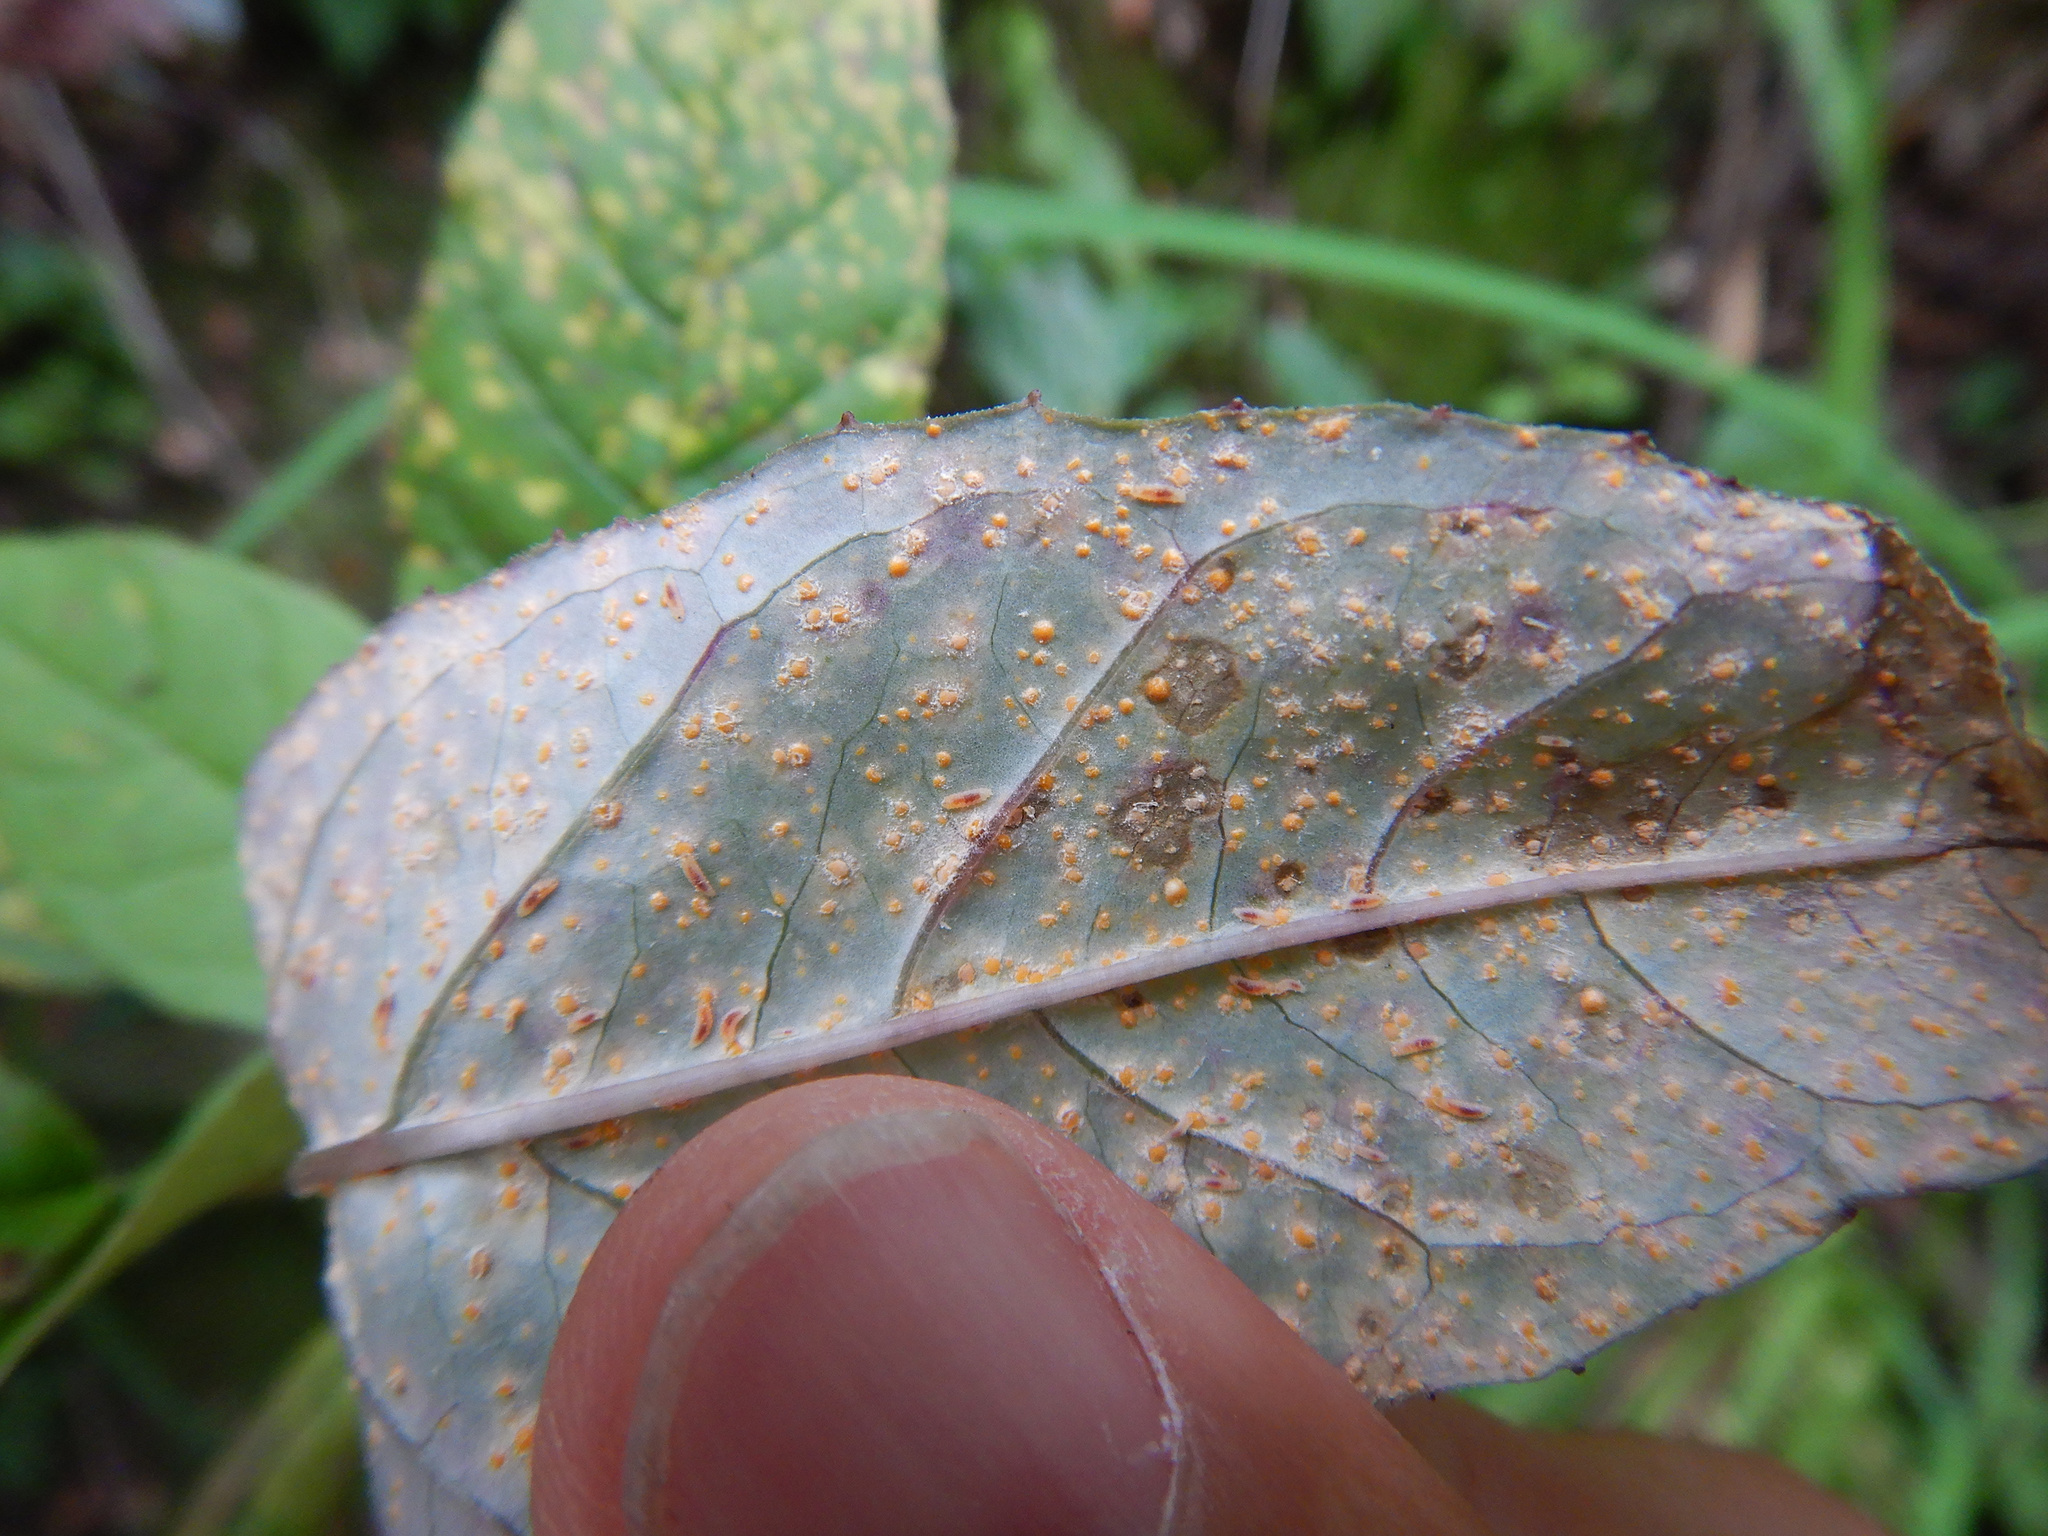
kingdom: Fungi
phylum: Basidiomycota
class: Pucciniomycetes
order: Pucciniales
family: Mikronegeriaceae
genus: Mikronegeria
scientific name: Mikronegeria fuchsiae
